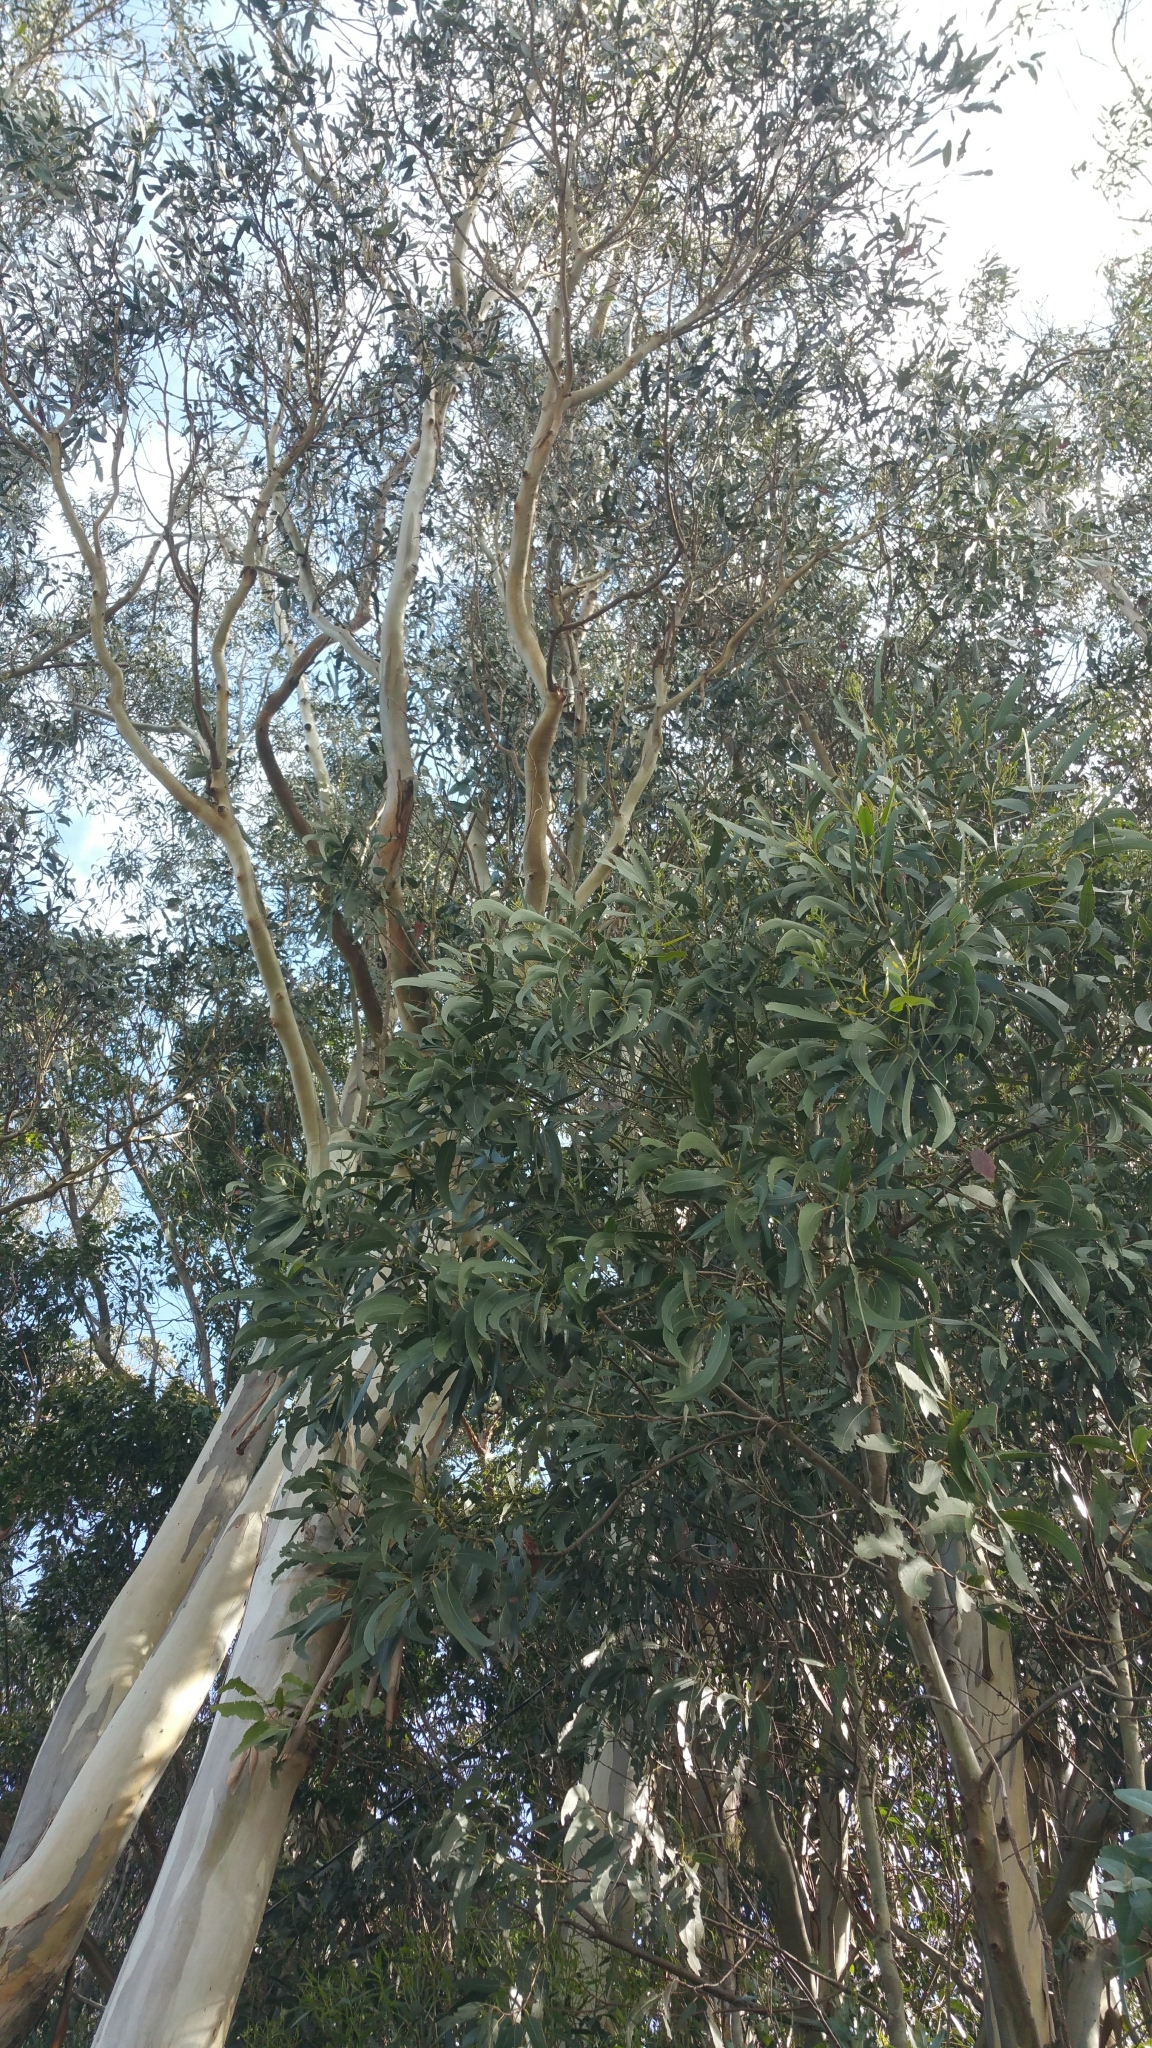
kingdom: Plantae
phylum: Tracheophyta
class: Magnoliopsida
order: Myrtales
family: Myrtaceae
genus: Eucalyptus
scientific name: Eucalyptus globulus
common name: Southern blue-gum
